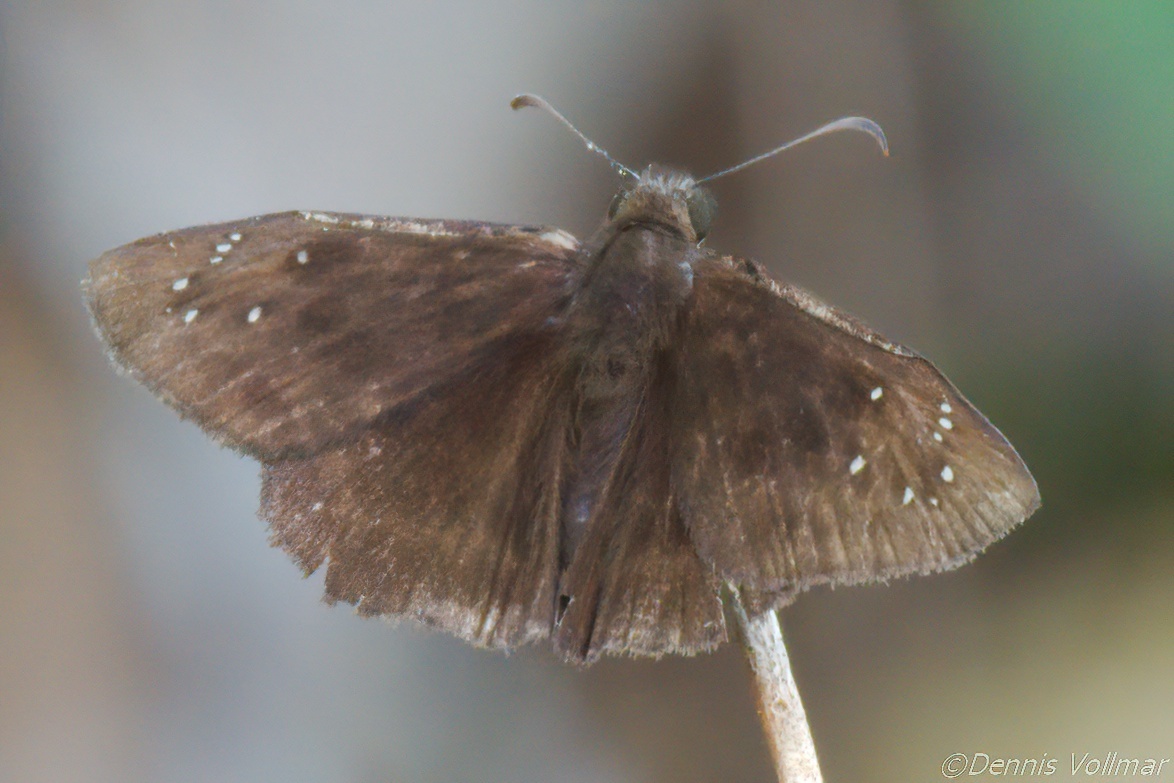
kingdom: Animalia
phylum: Arthropoda
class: Insecta
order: Lepidoptera
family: Hesperiidae
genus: Ephyriades
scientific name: Ephyriades brunnea
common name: Florida duskywing
